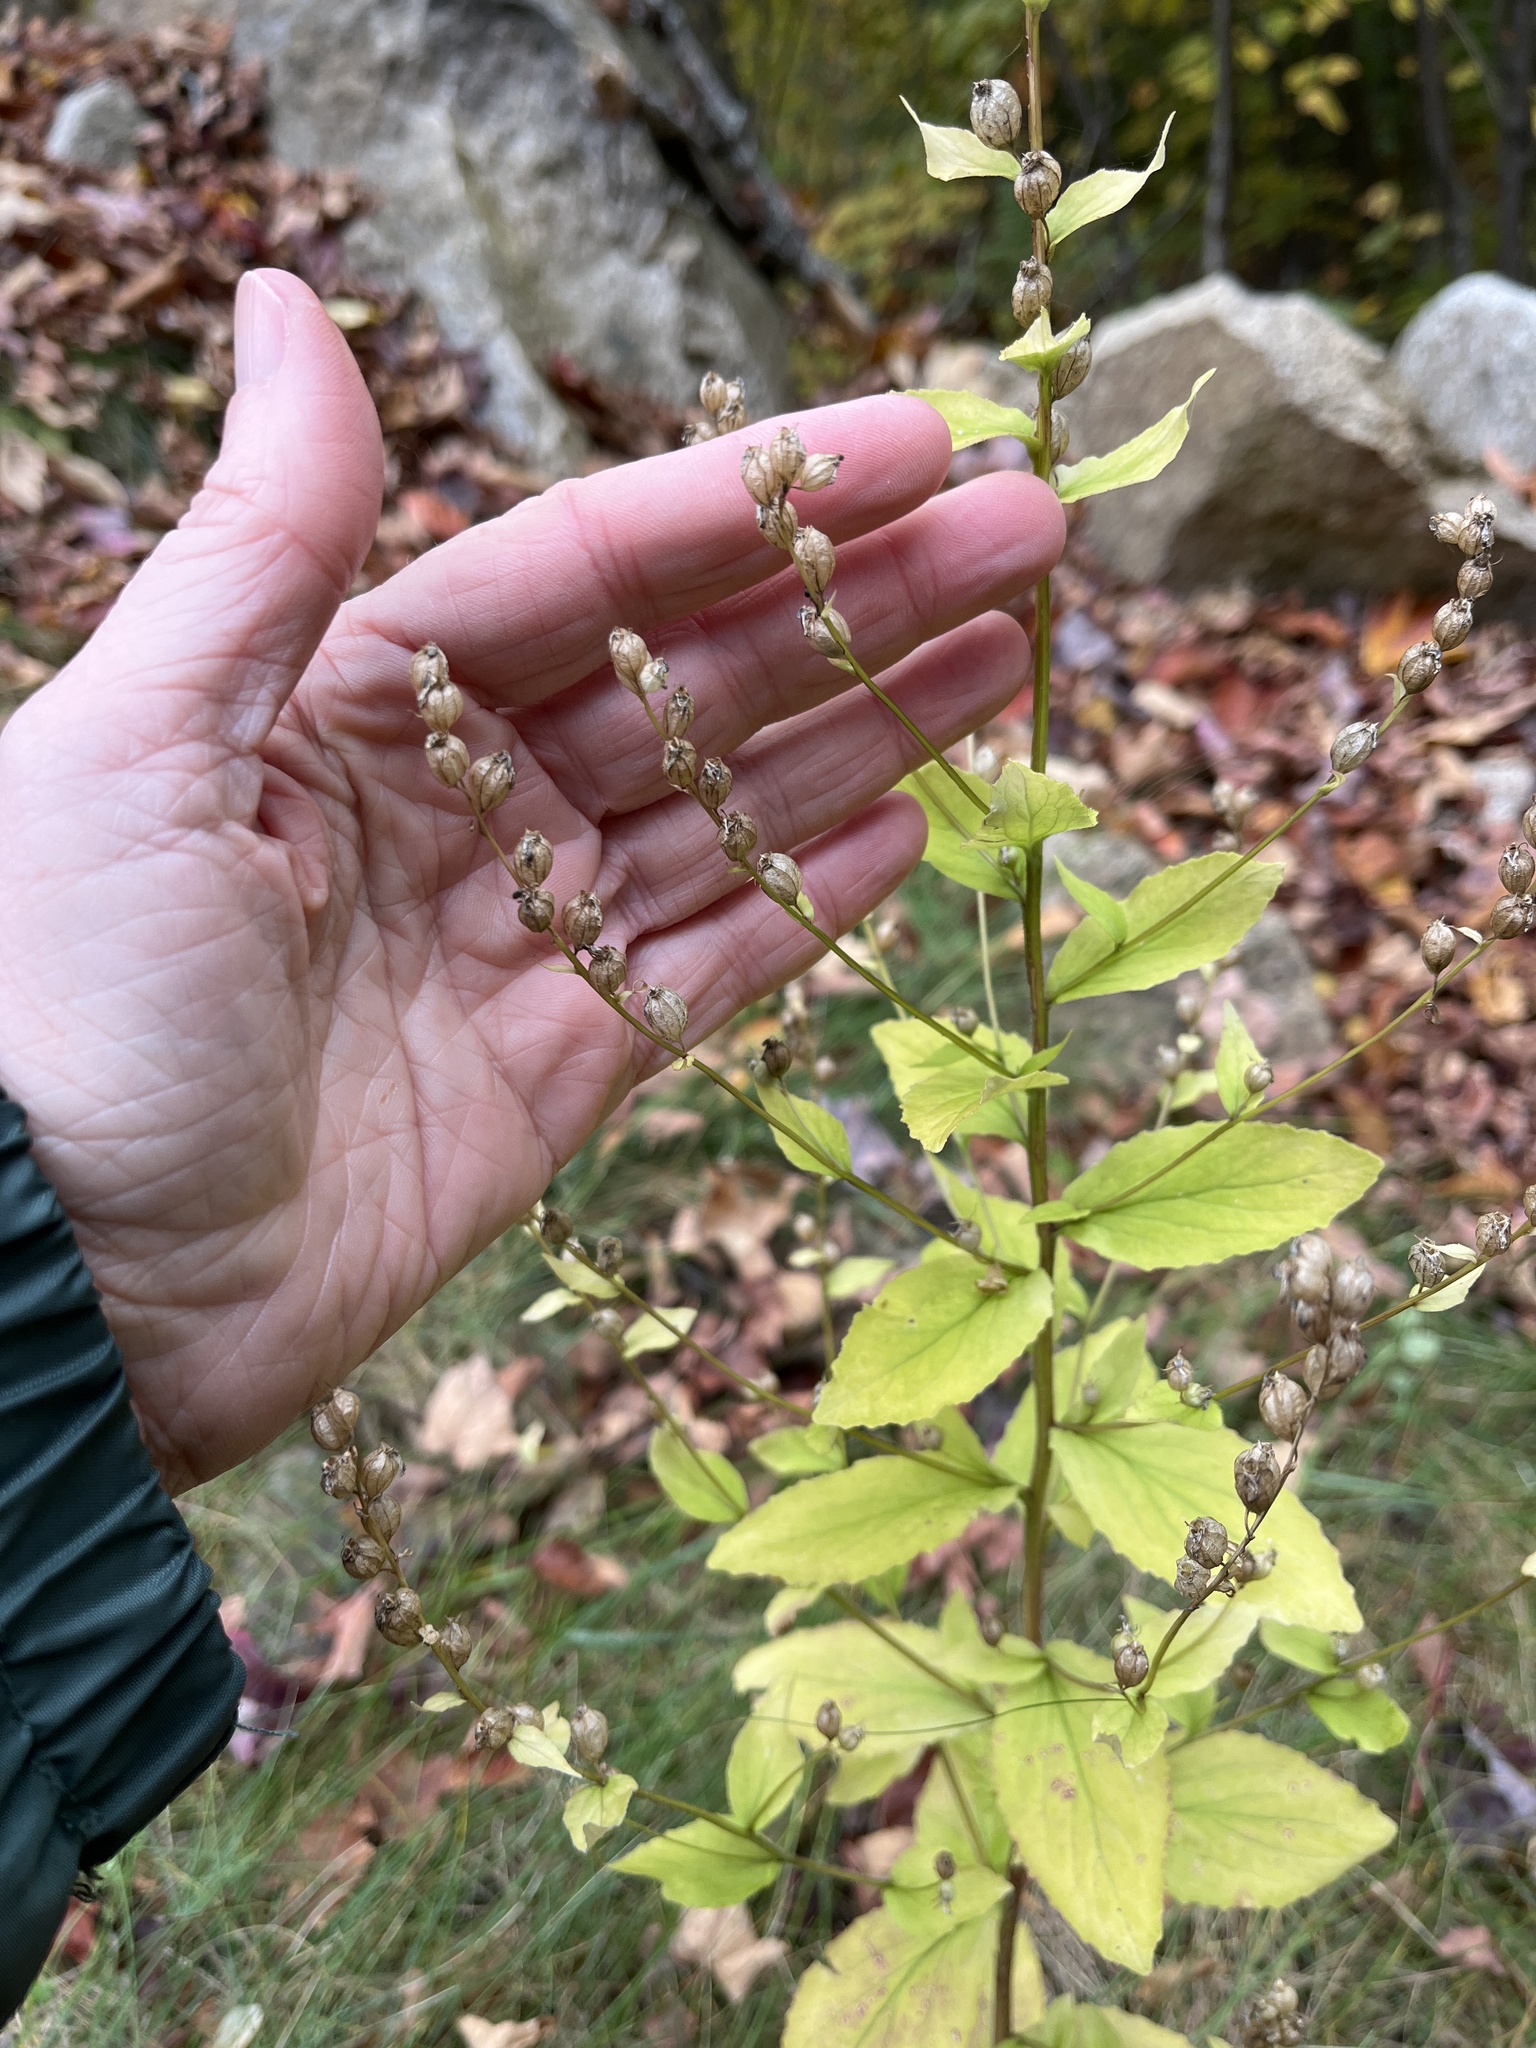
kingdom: Plantae
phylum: Tracheophyta
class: Magnoliopsida
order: Asterales
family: Campanulaceae
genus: Lobelia
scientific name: Lobelia inflata
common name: Indian tobacco
